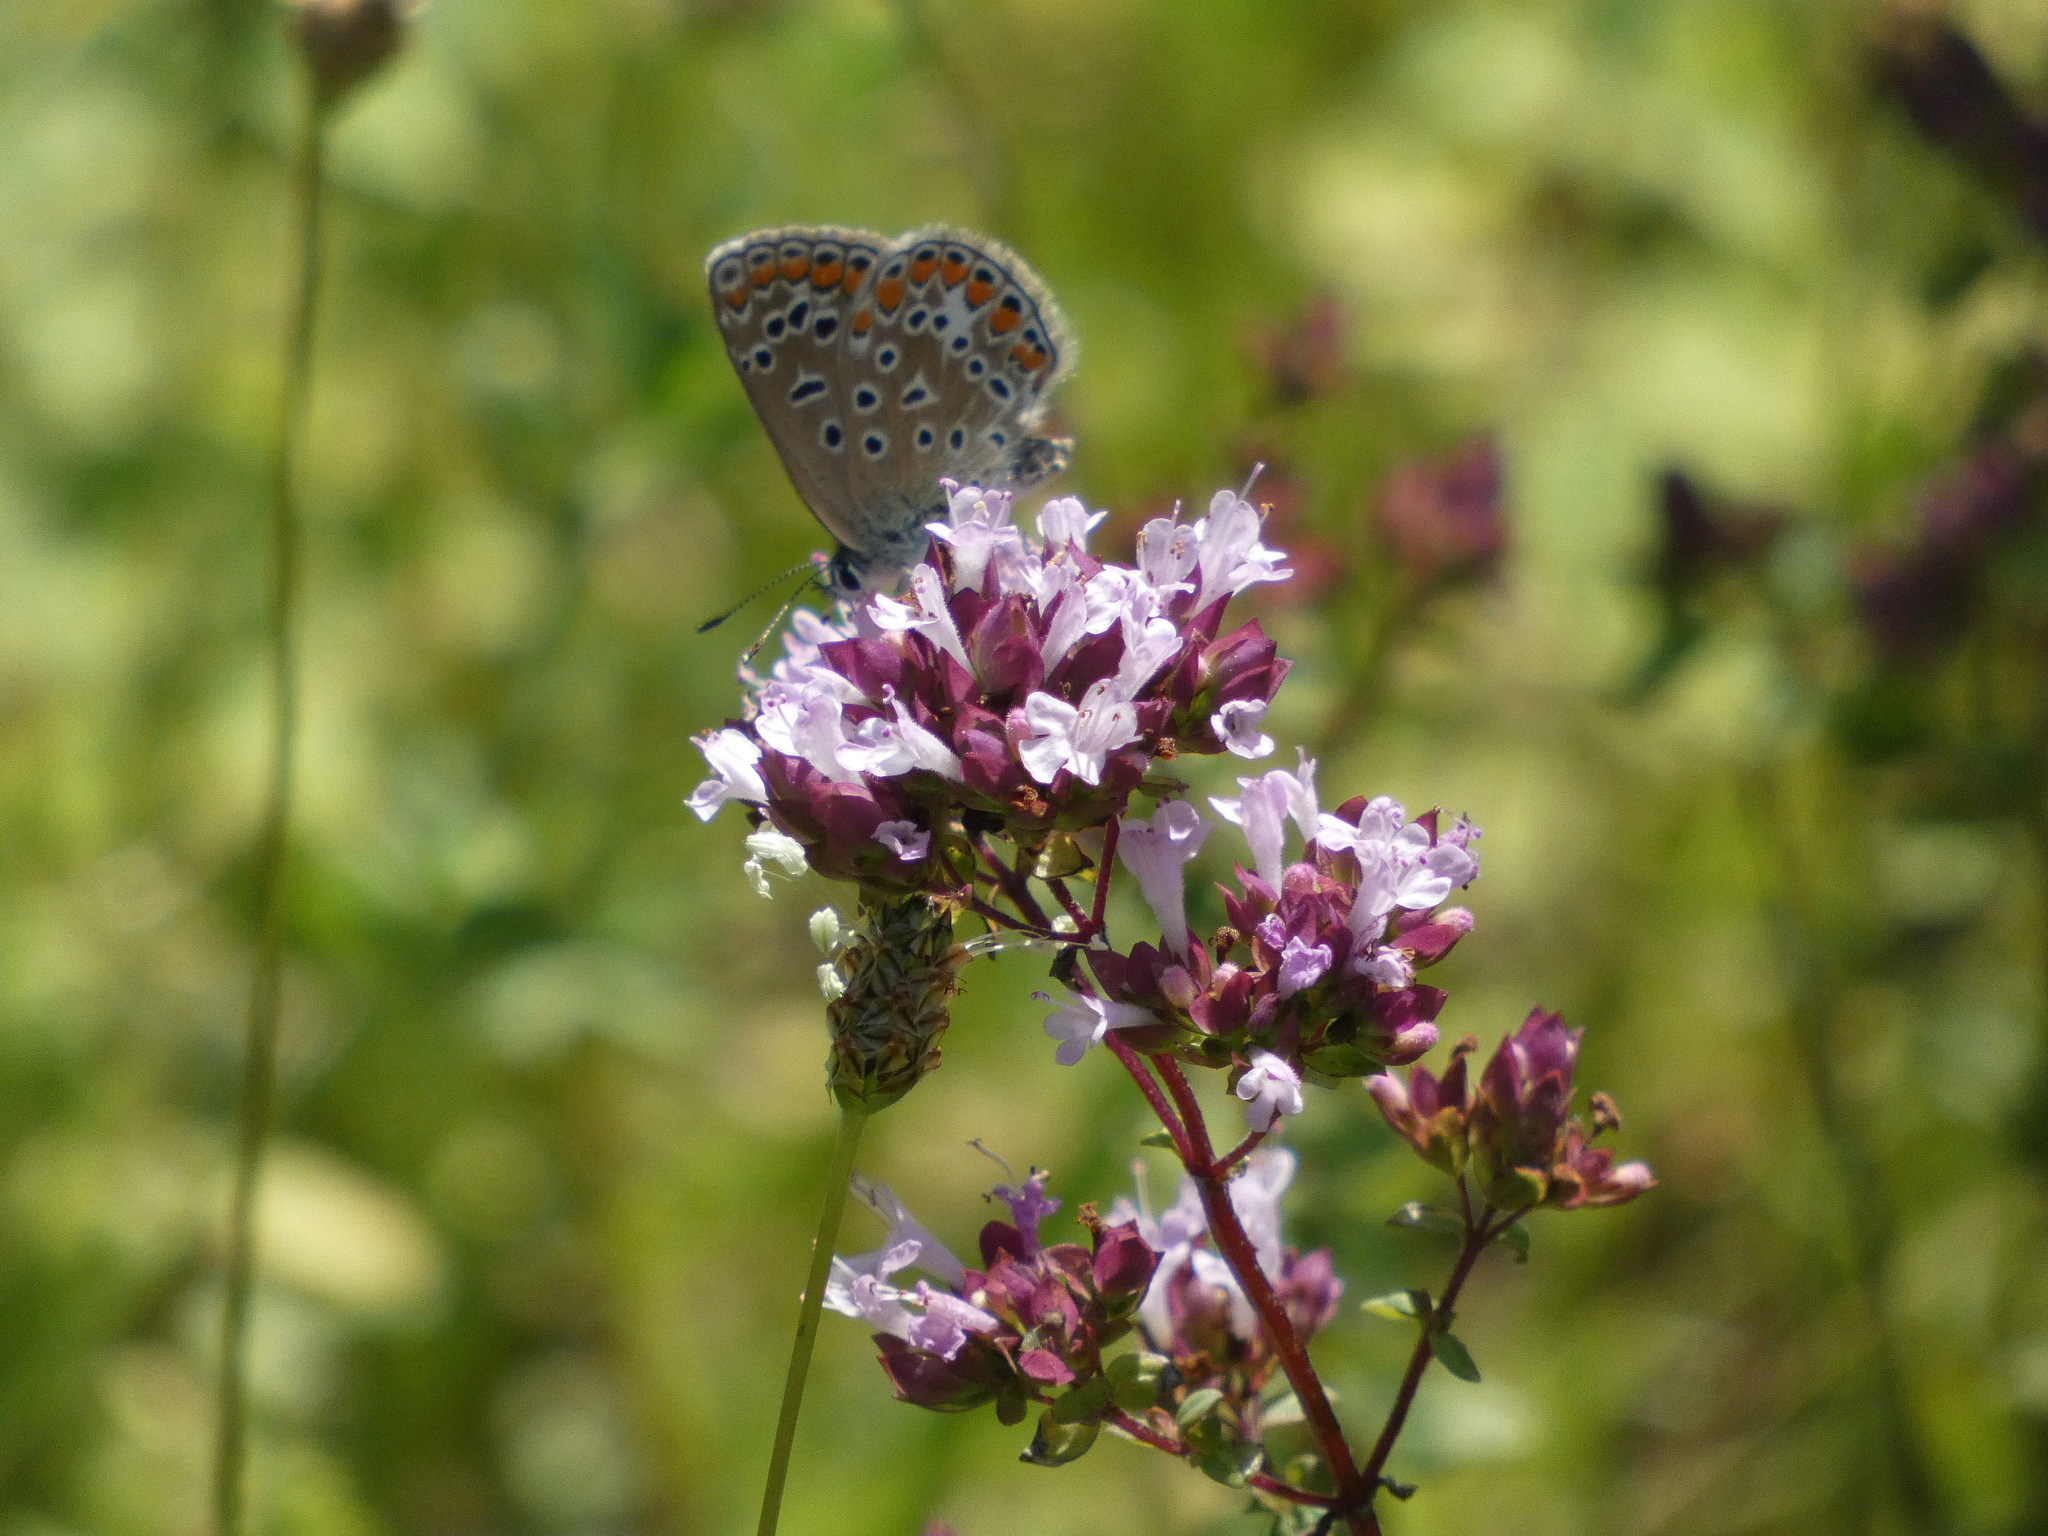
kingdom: Animalia
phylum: Arthropoda
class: Insecta
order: Lepidoptera
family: Lycaenidae
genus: Polyommatus
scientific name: Polyommatus icarus
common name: Common blue
